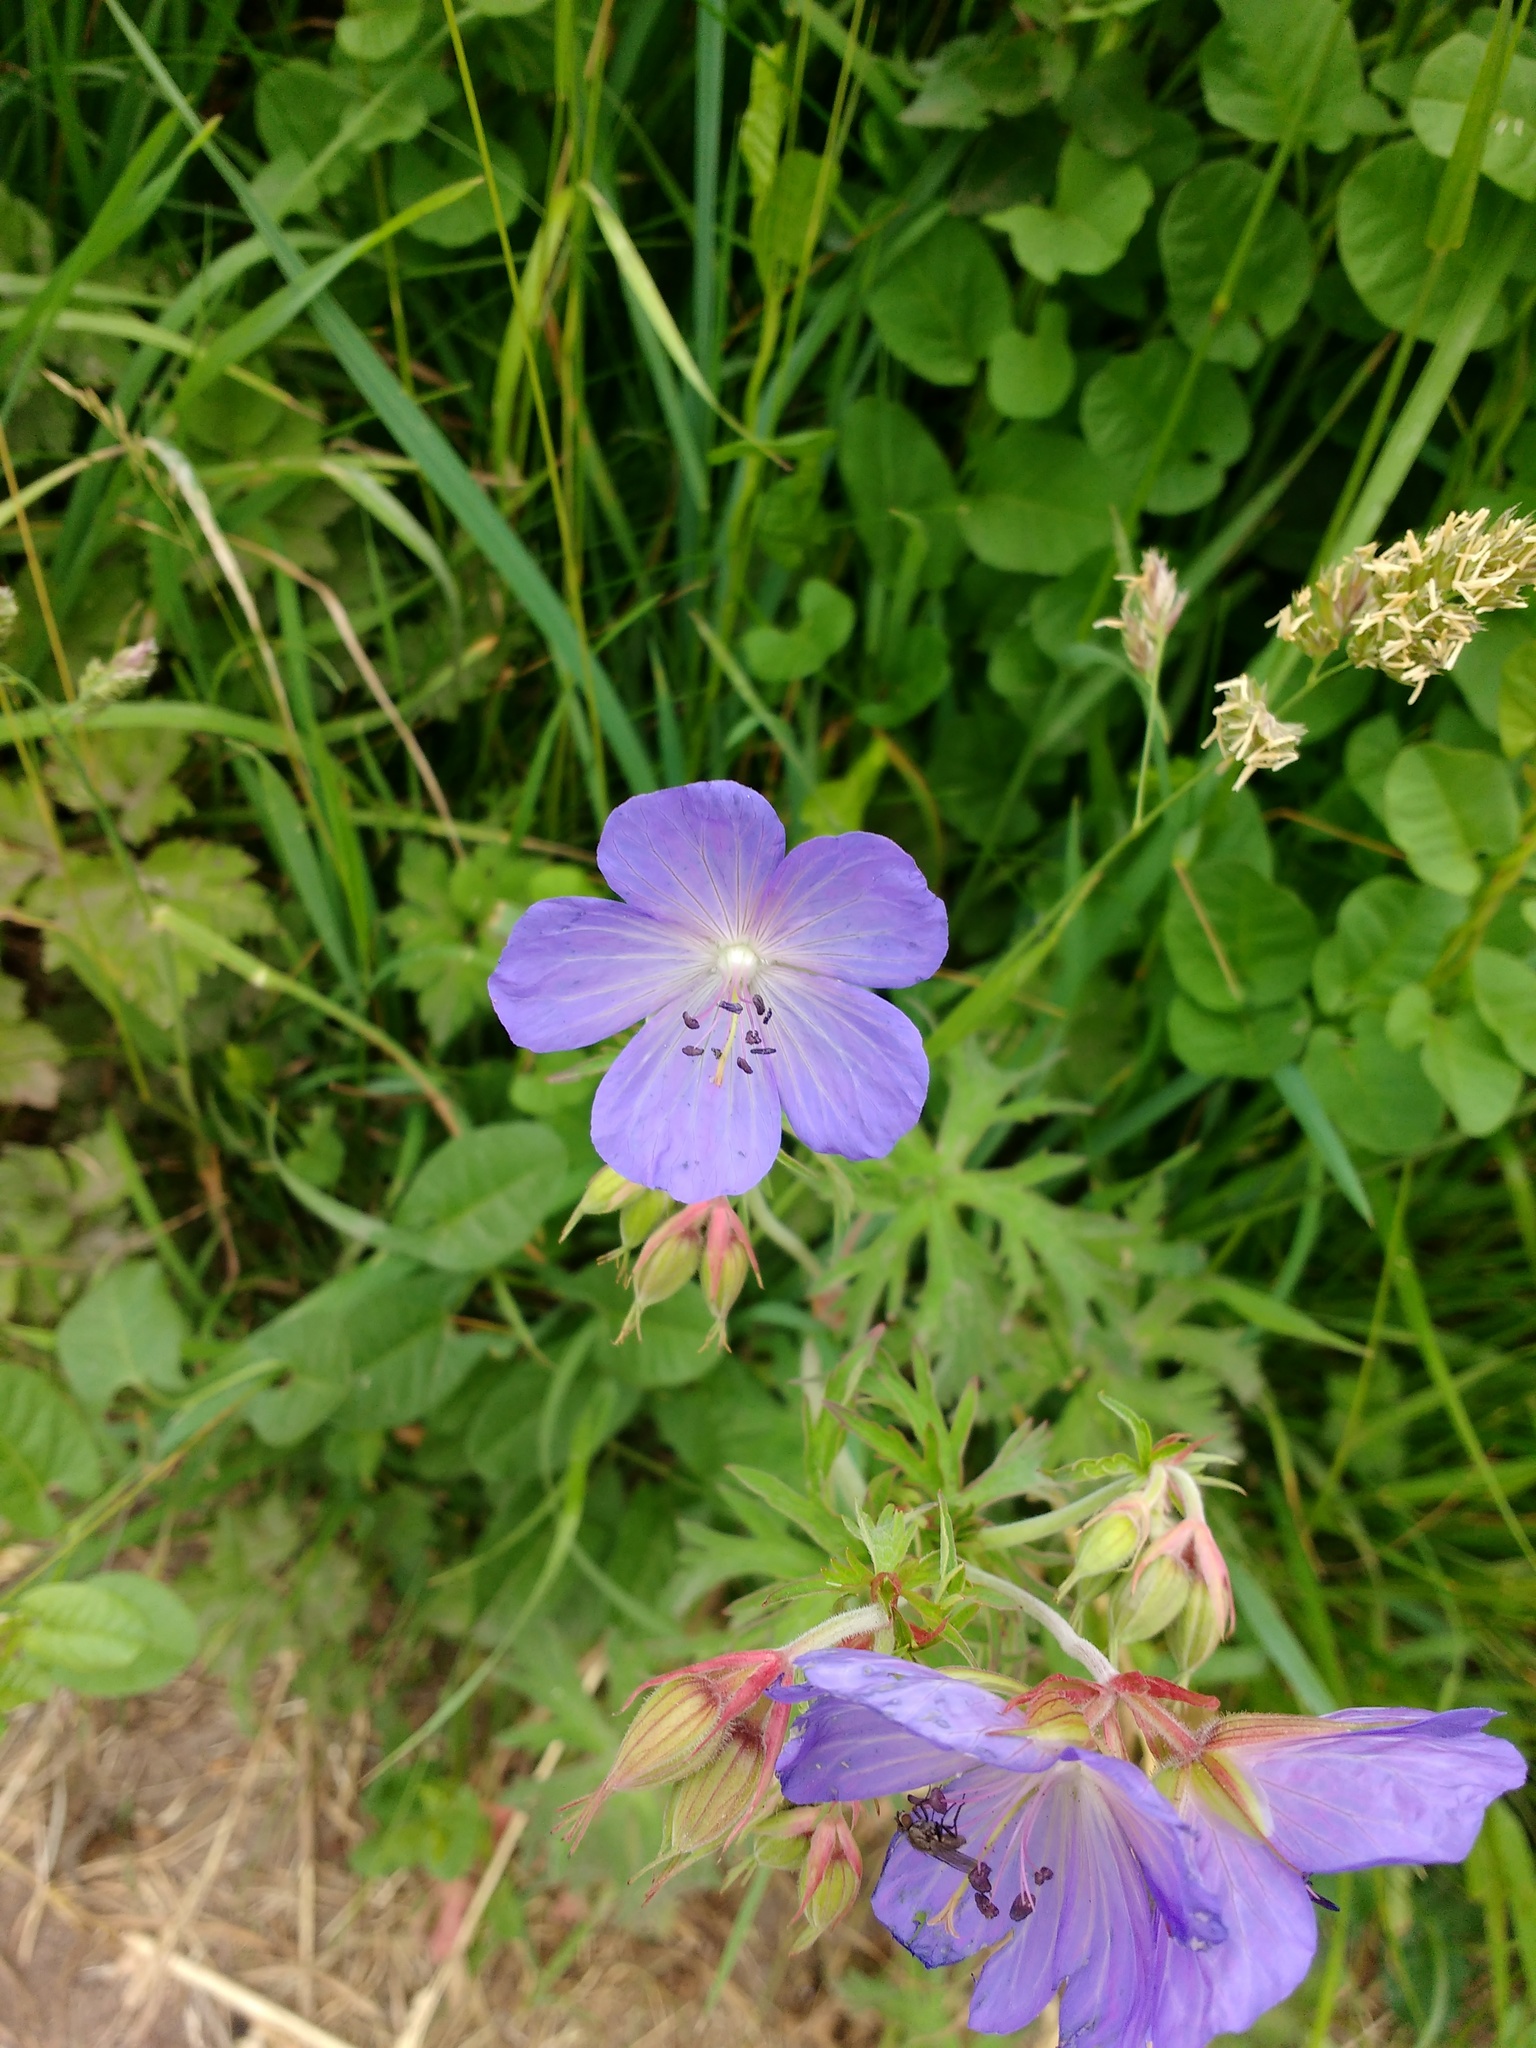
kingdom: Plantae
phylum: Tracheophyta
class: Magnoliopsida
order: Geraniales
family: Geraniaceae
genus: Geranium
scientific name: Geranium pratense
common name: Meadow crane's-bill
